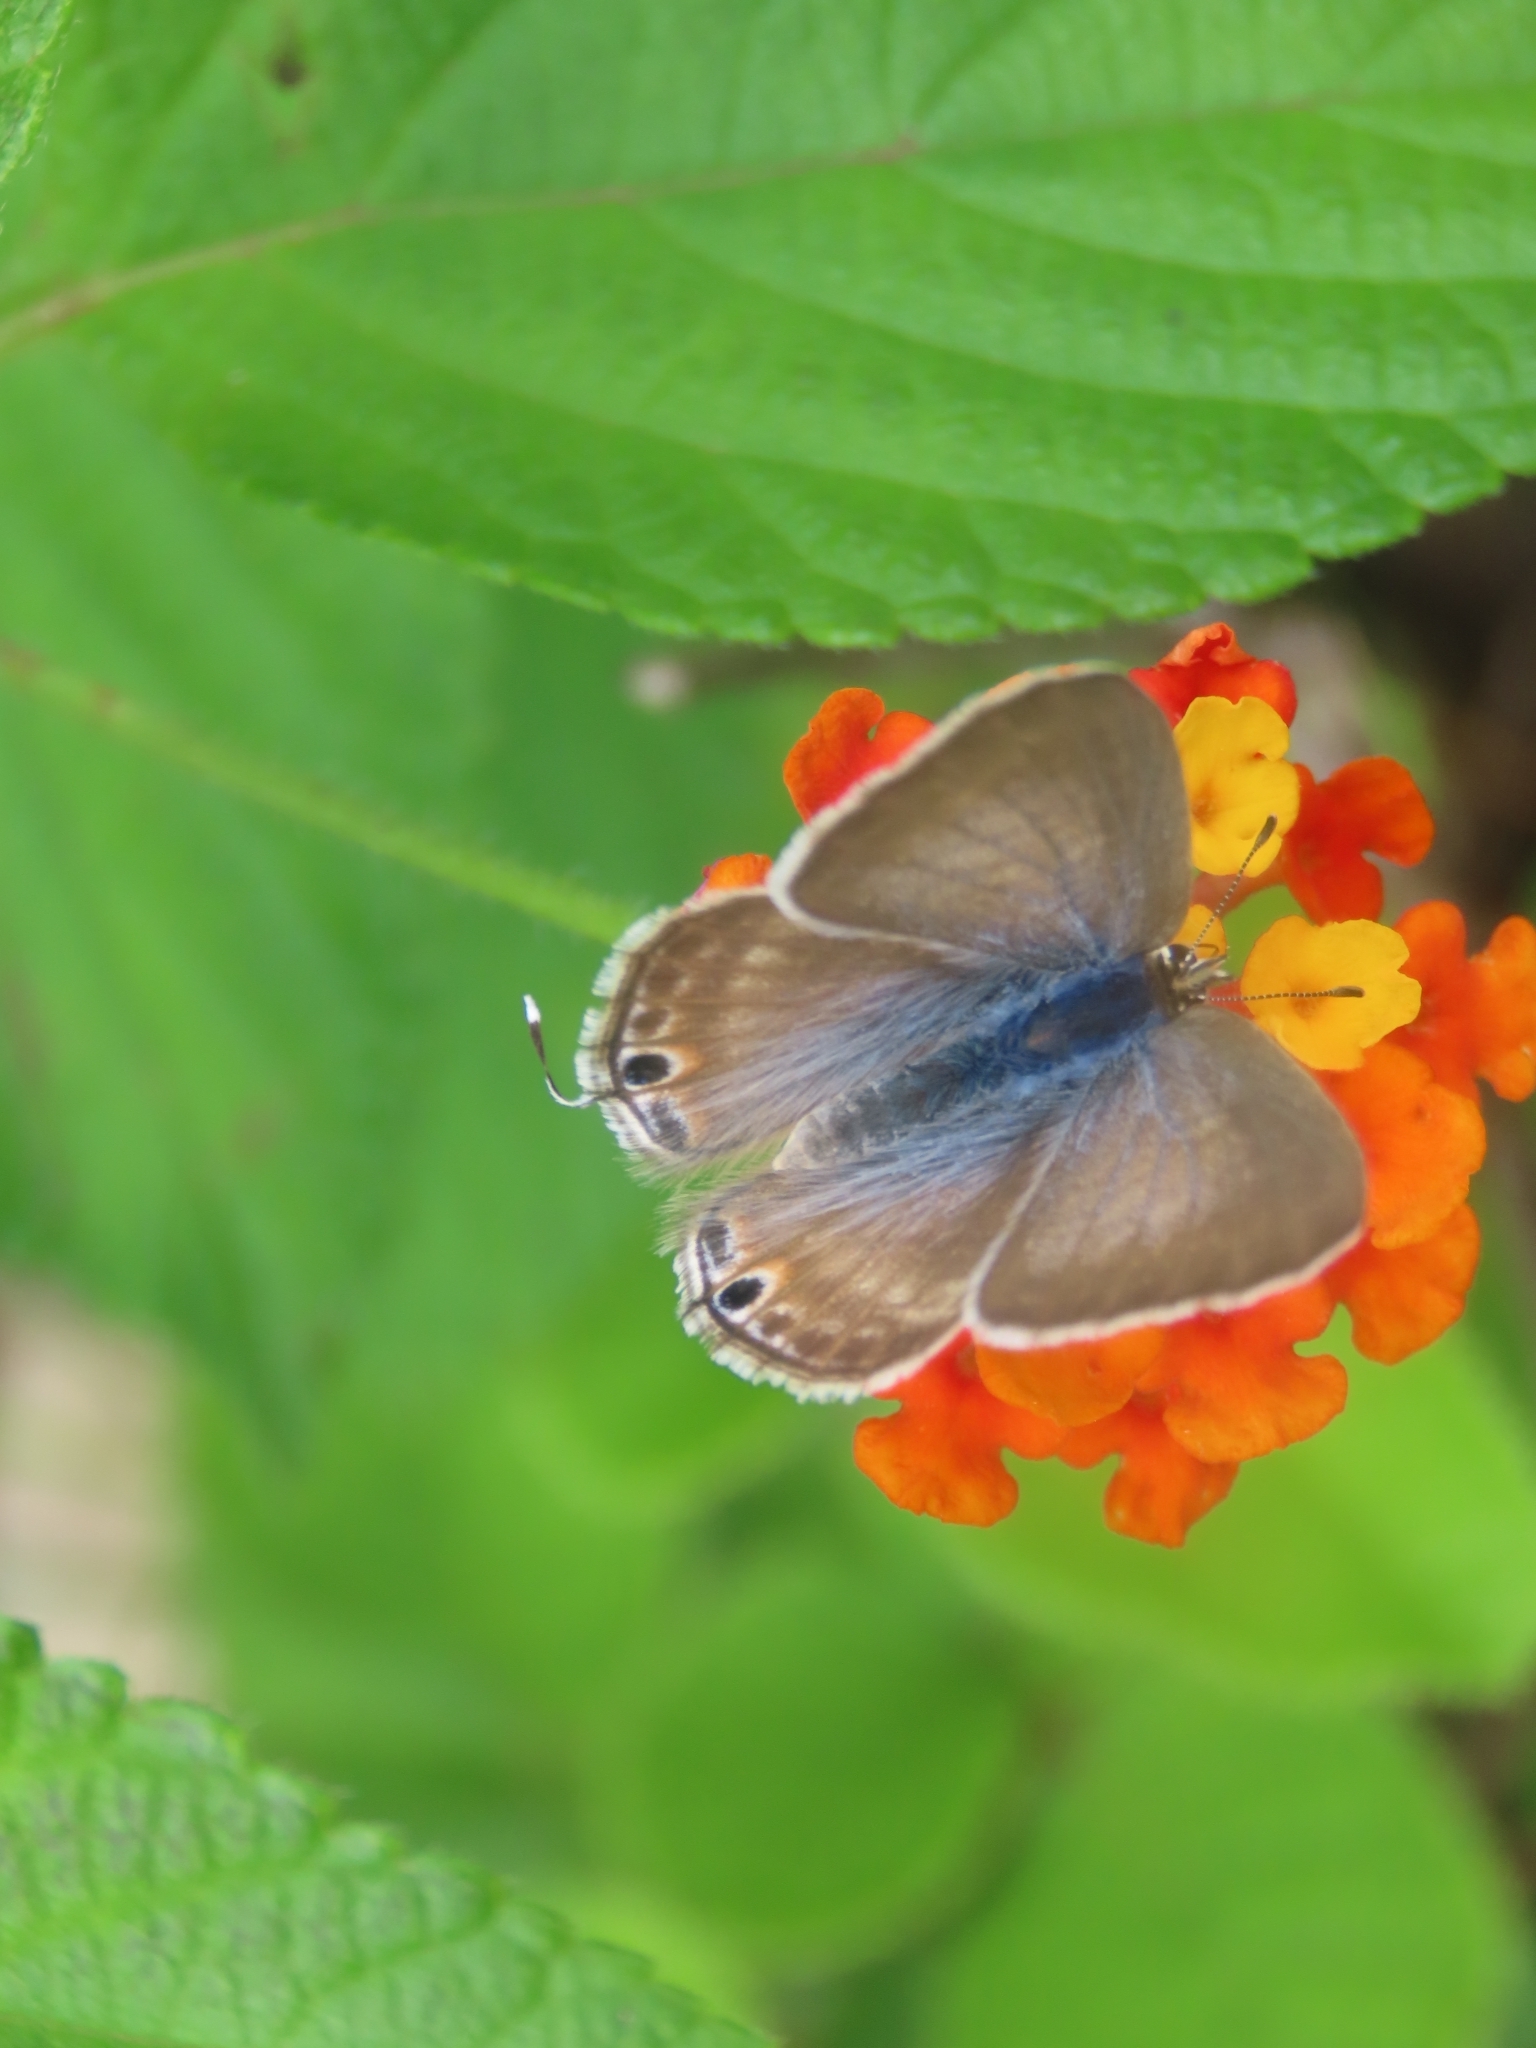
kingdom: Animalia
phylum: Arthropoda
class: Insecta
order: Lepidoptera
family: Lycaenidae
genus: Lampides
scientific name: Lampides boeticus
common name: Long-tailed blue
